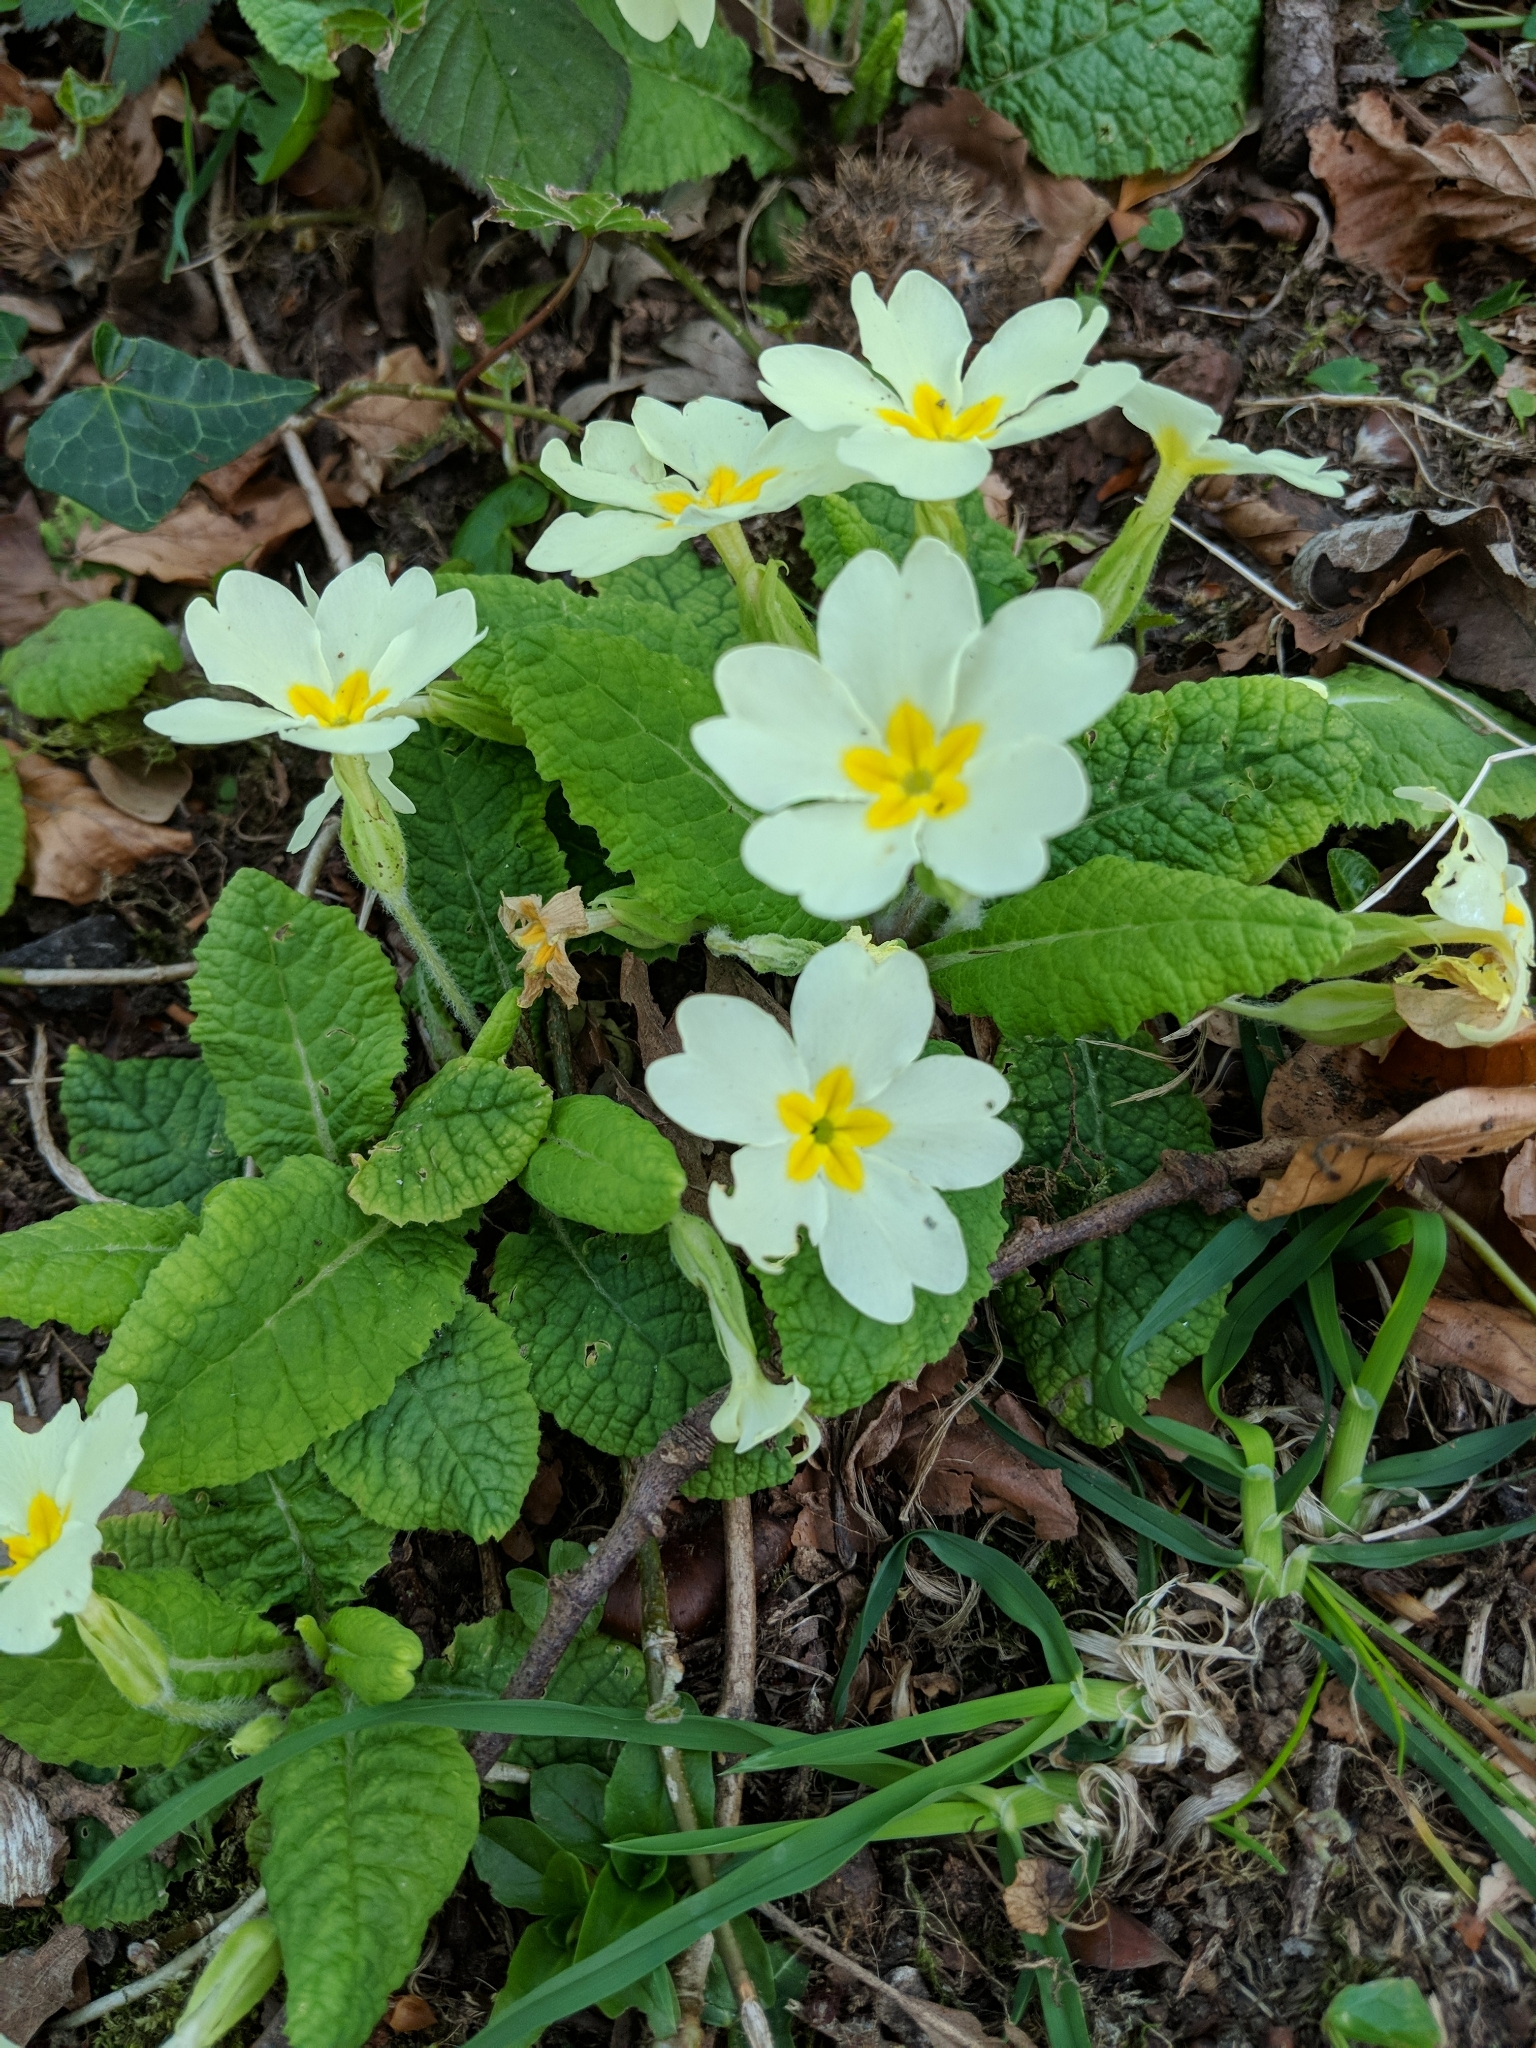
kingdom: Plantae
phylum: Tracheophyta
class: Magnoliopsida
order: Ericales
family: Primulaceae
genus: Primula
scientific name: Primula vulgaris
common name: Primrose
